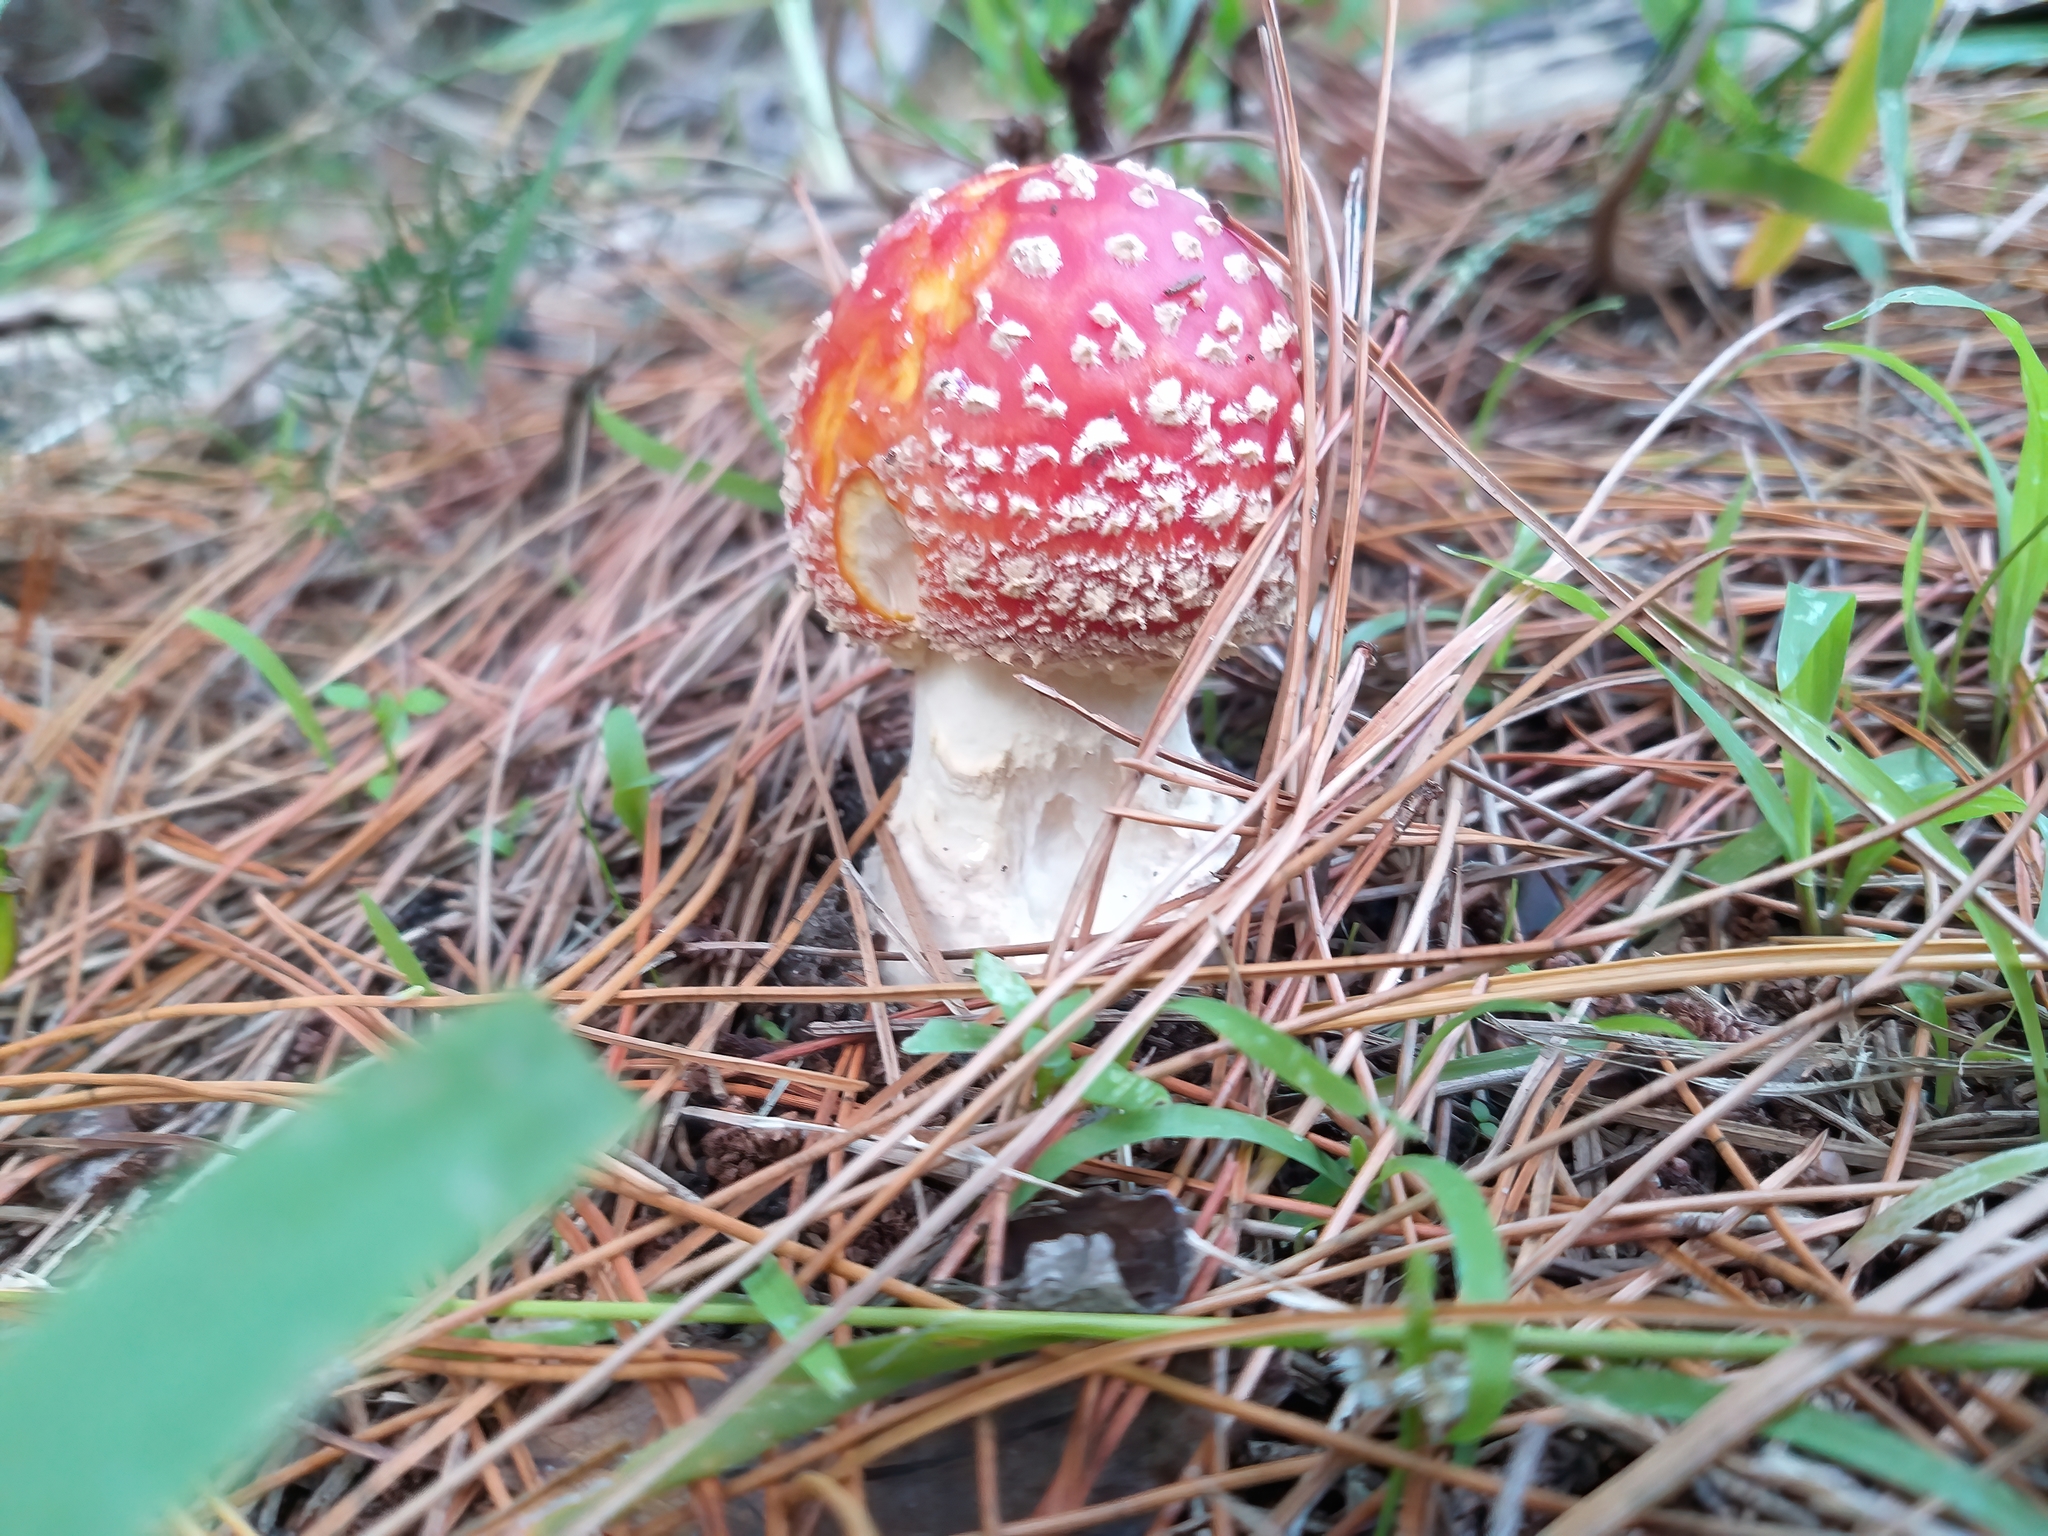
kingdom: Fungi
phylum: Basidiomycota
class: Agaricomycetes
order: Agaricales
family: Amanitaceae
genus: Amanita
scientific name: Amanita muscaria
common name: Fly agaric
